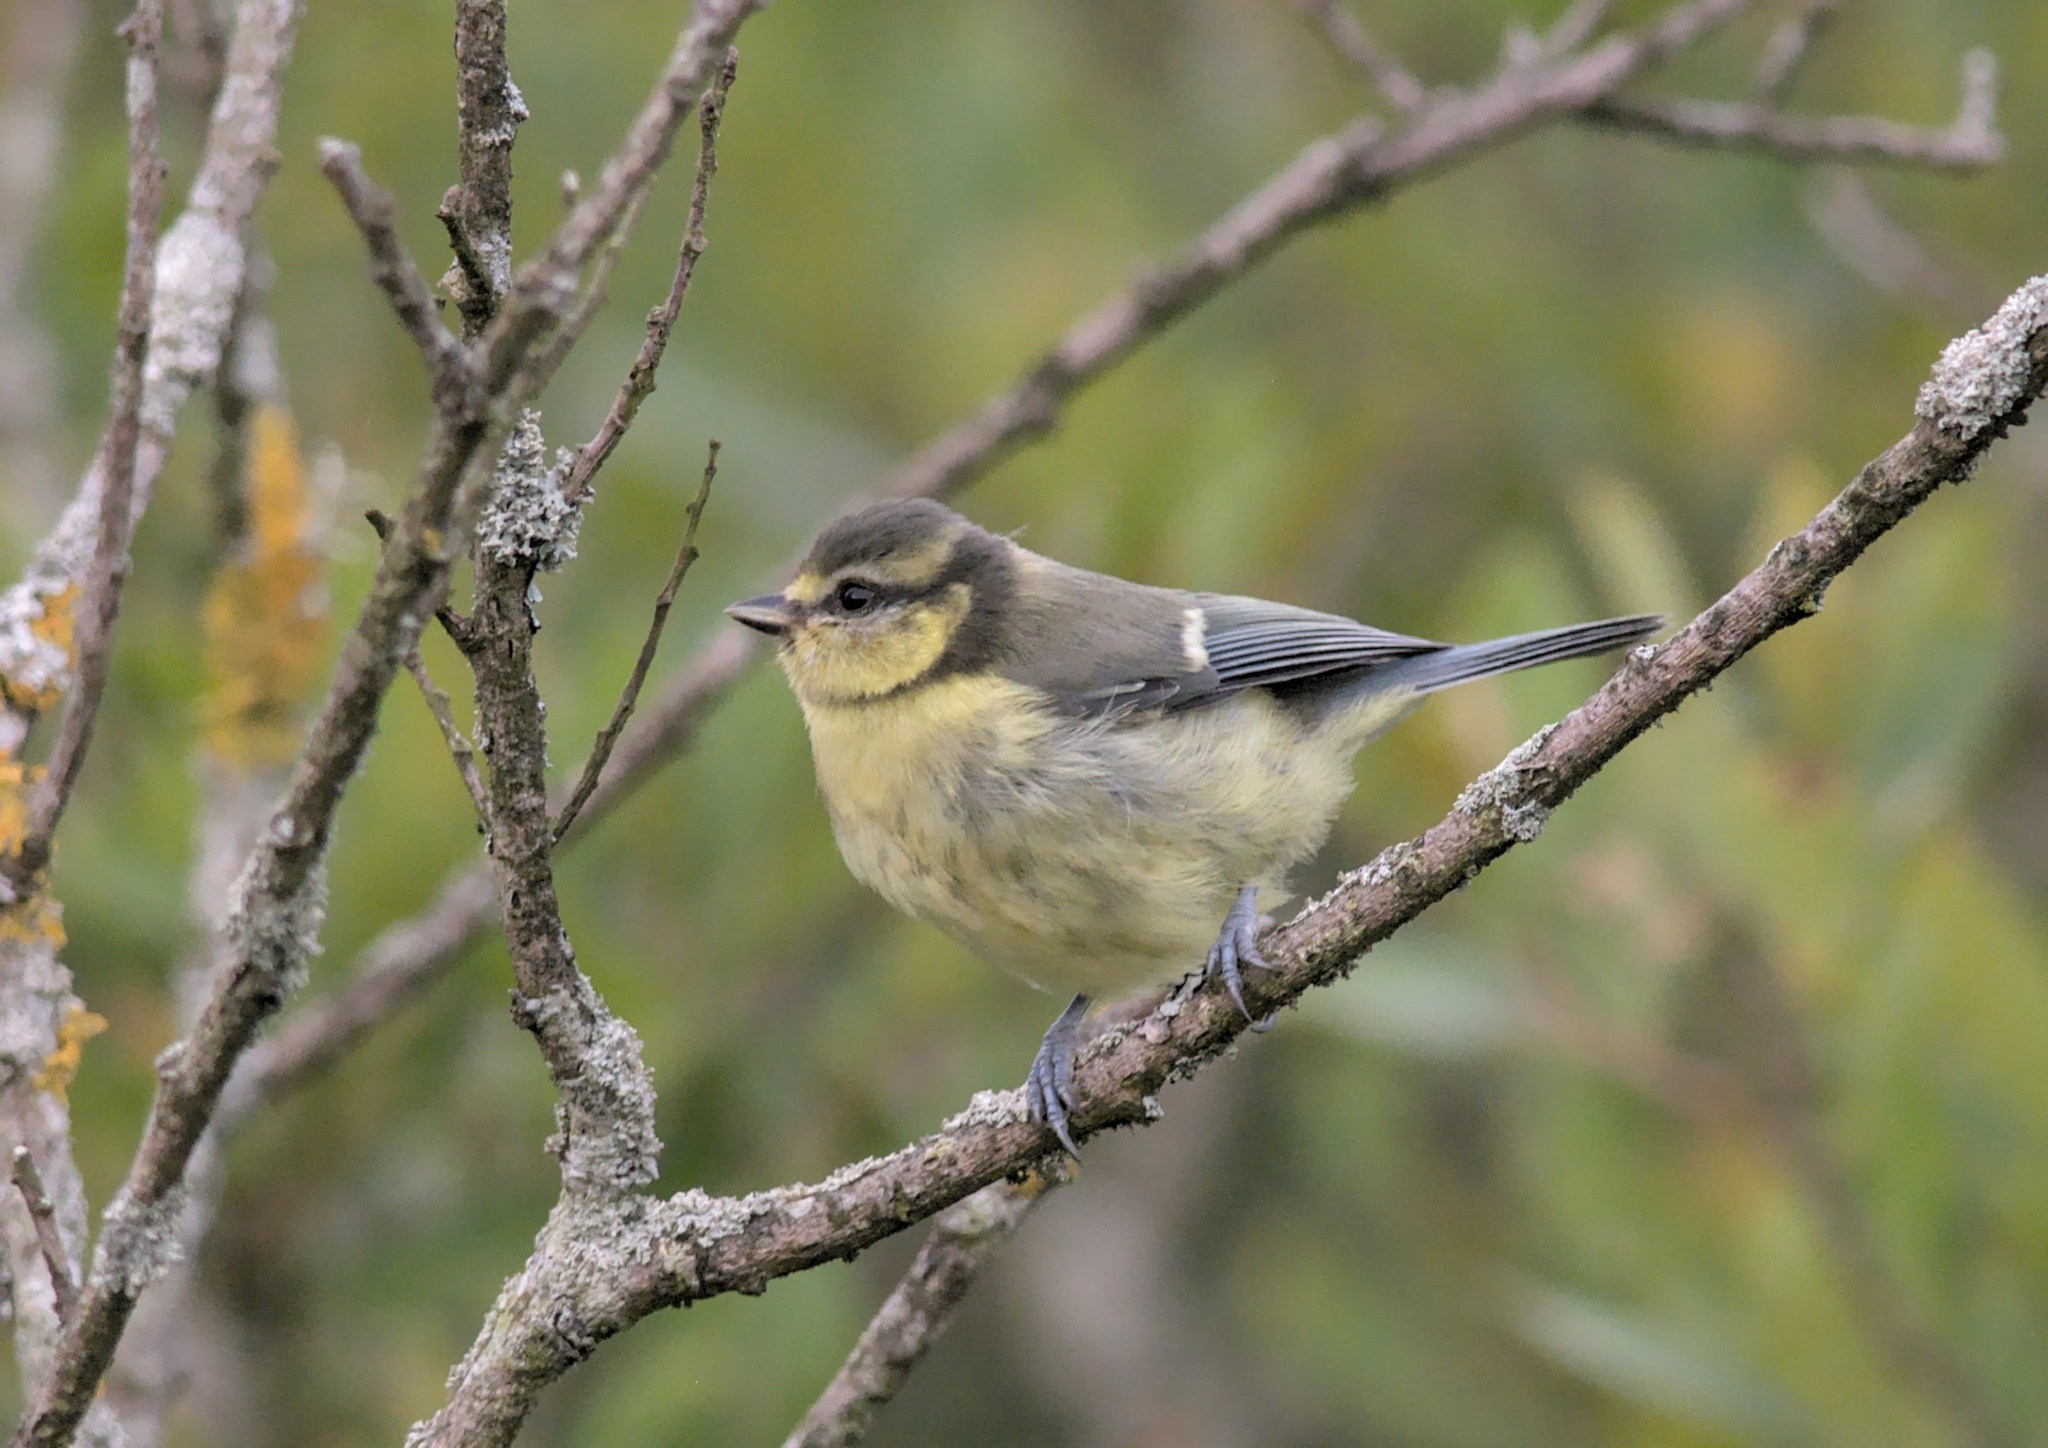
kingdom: Animalia
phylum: Chordata
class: Aves
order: Passeriformes
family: Paridae
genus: Cyanistes
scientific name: Cyanistes caeruleus
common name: Eurasian blue tit
